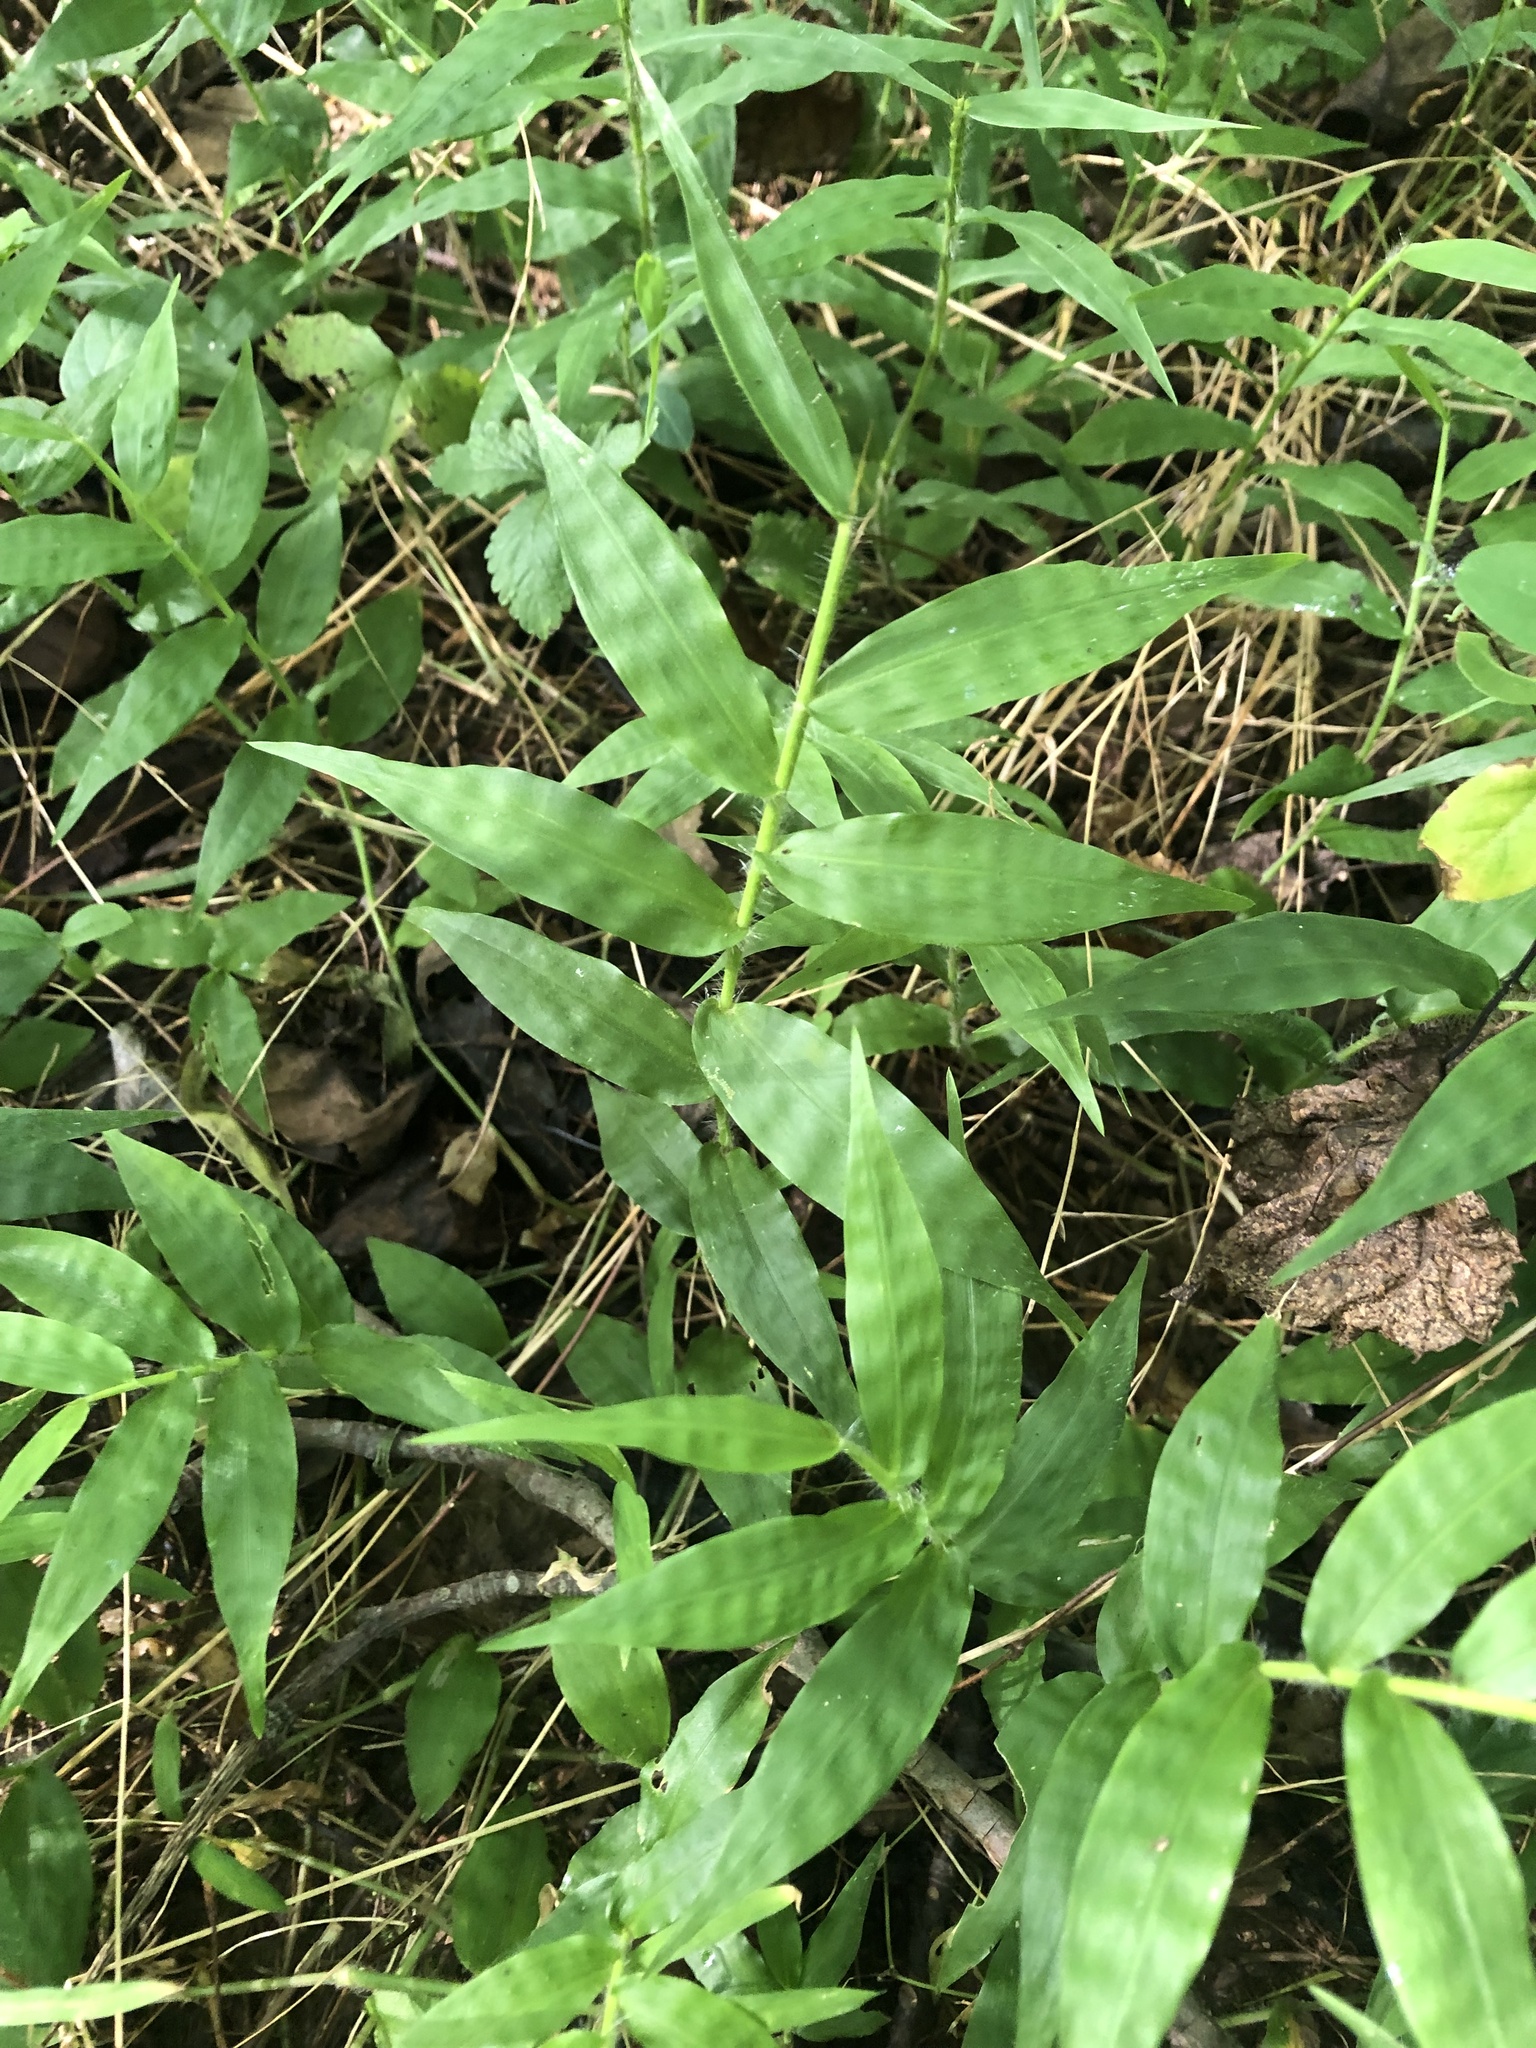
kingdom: Plantae
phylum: Tracheophyta
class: Liliopsida
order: Poales
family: Poaceae
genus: Oplismenus
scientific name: Oplismenus undulatifolius
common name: Wavyleaf basketgrass
